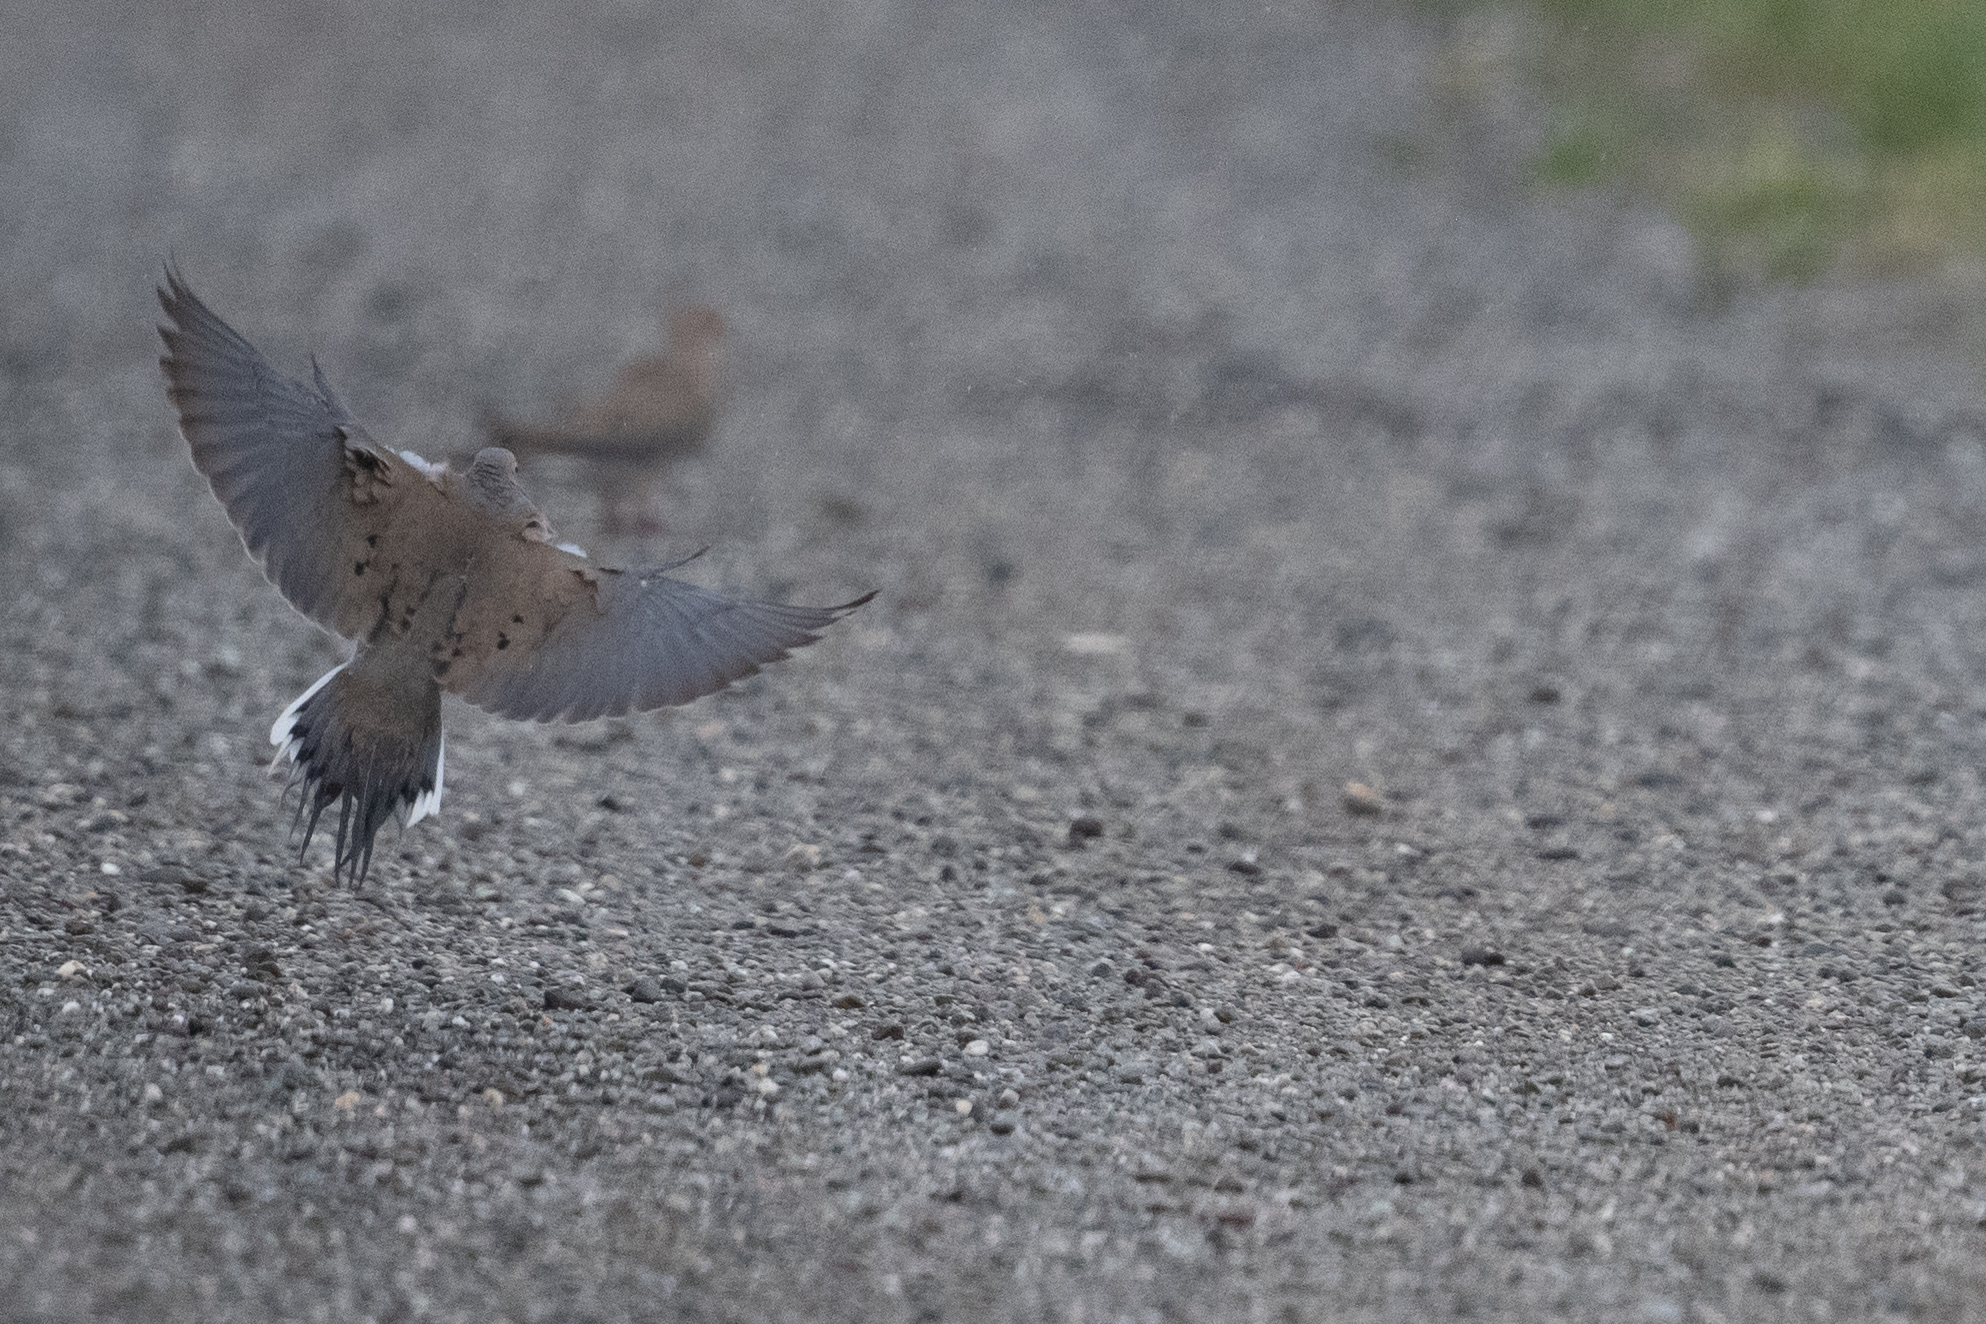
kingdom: Animalia
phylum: Chordata
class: Aves
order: Columbiformes
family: Columbidae
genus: Zenaida
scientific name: Zenaida macroura
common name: Mourning dove
